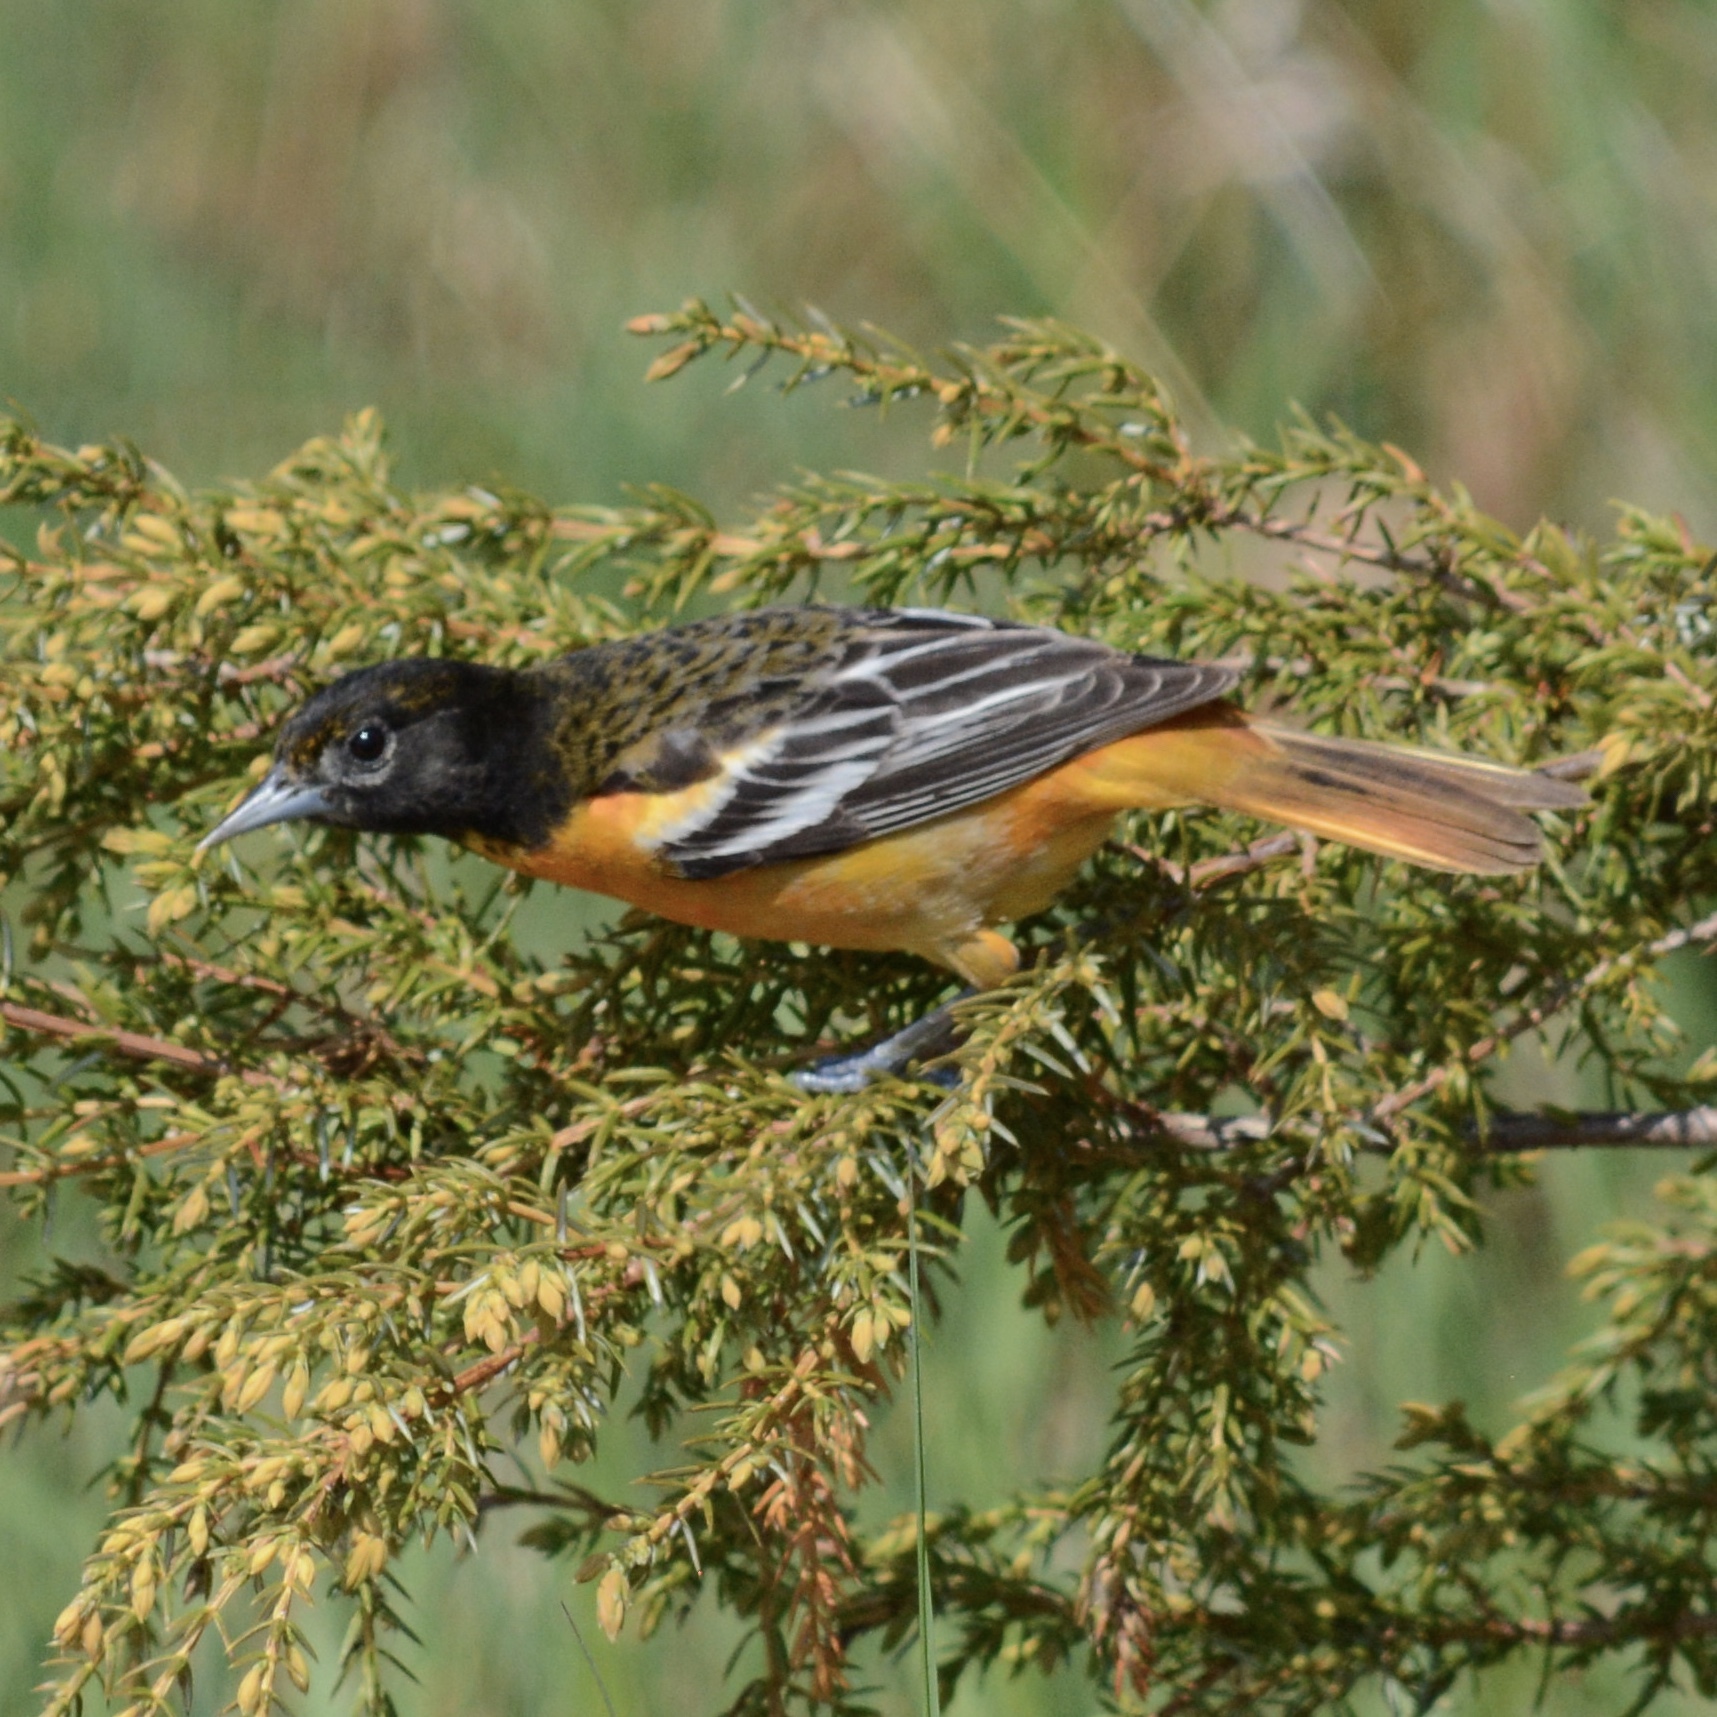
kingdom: Animalia
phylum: Chordata
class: Aves
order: Passeriformes
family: Icteridae
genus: Icterus
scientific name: Icterus galbula
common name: Baltimore oriole
